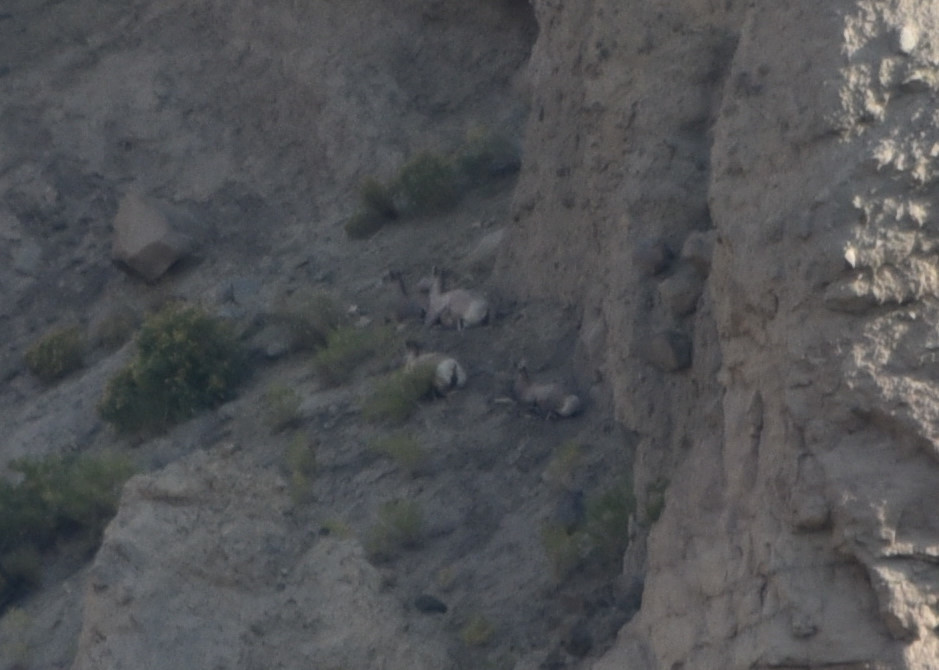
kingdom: Animalia
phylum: Chordata
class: Mammalia
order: Artiodactyla
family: Bovidae
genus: Ovis
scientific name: Ovis canadensis
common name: Bighorn sheep
